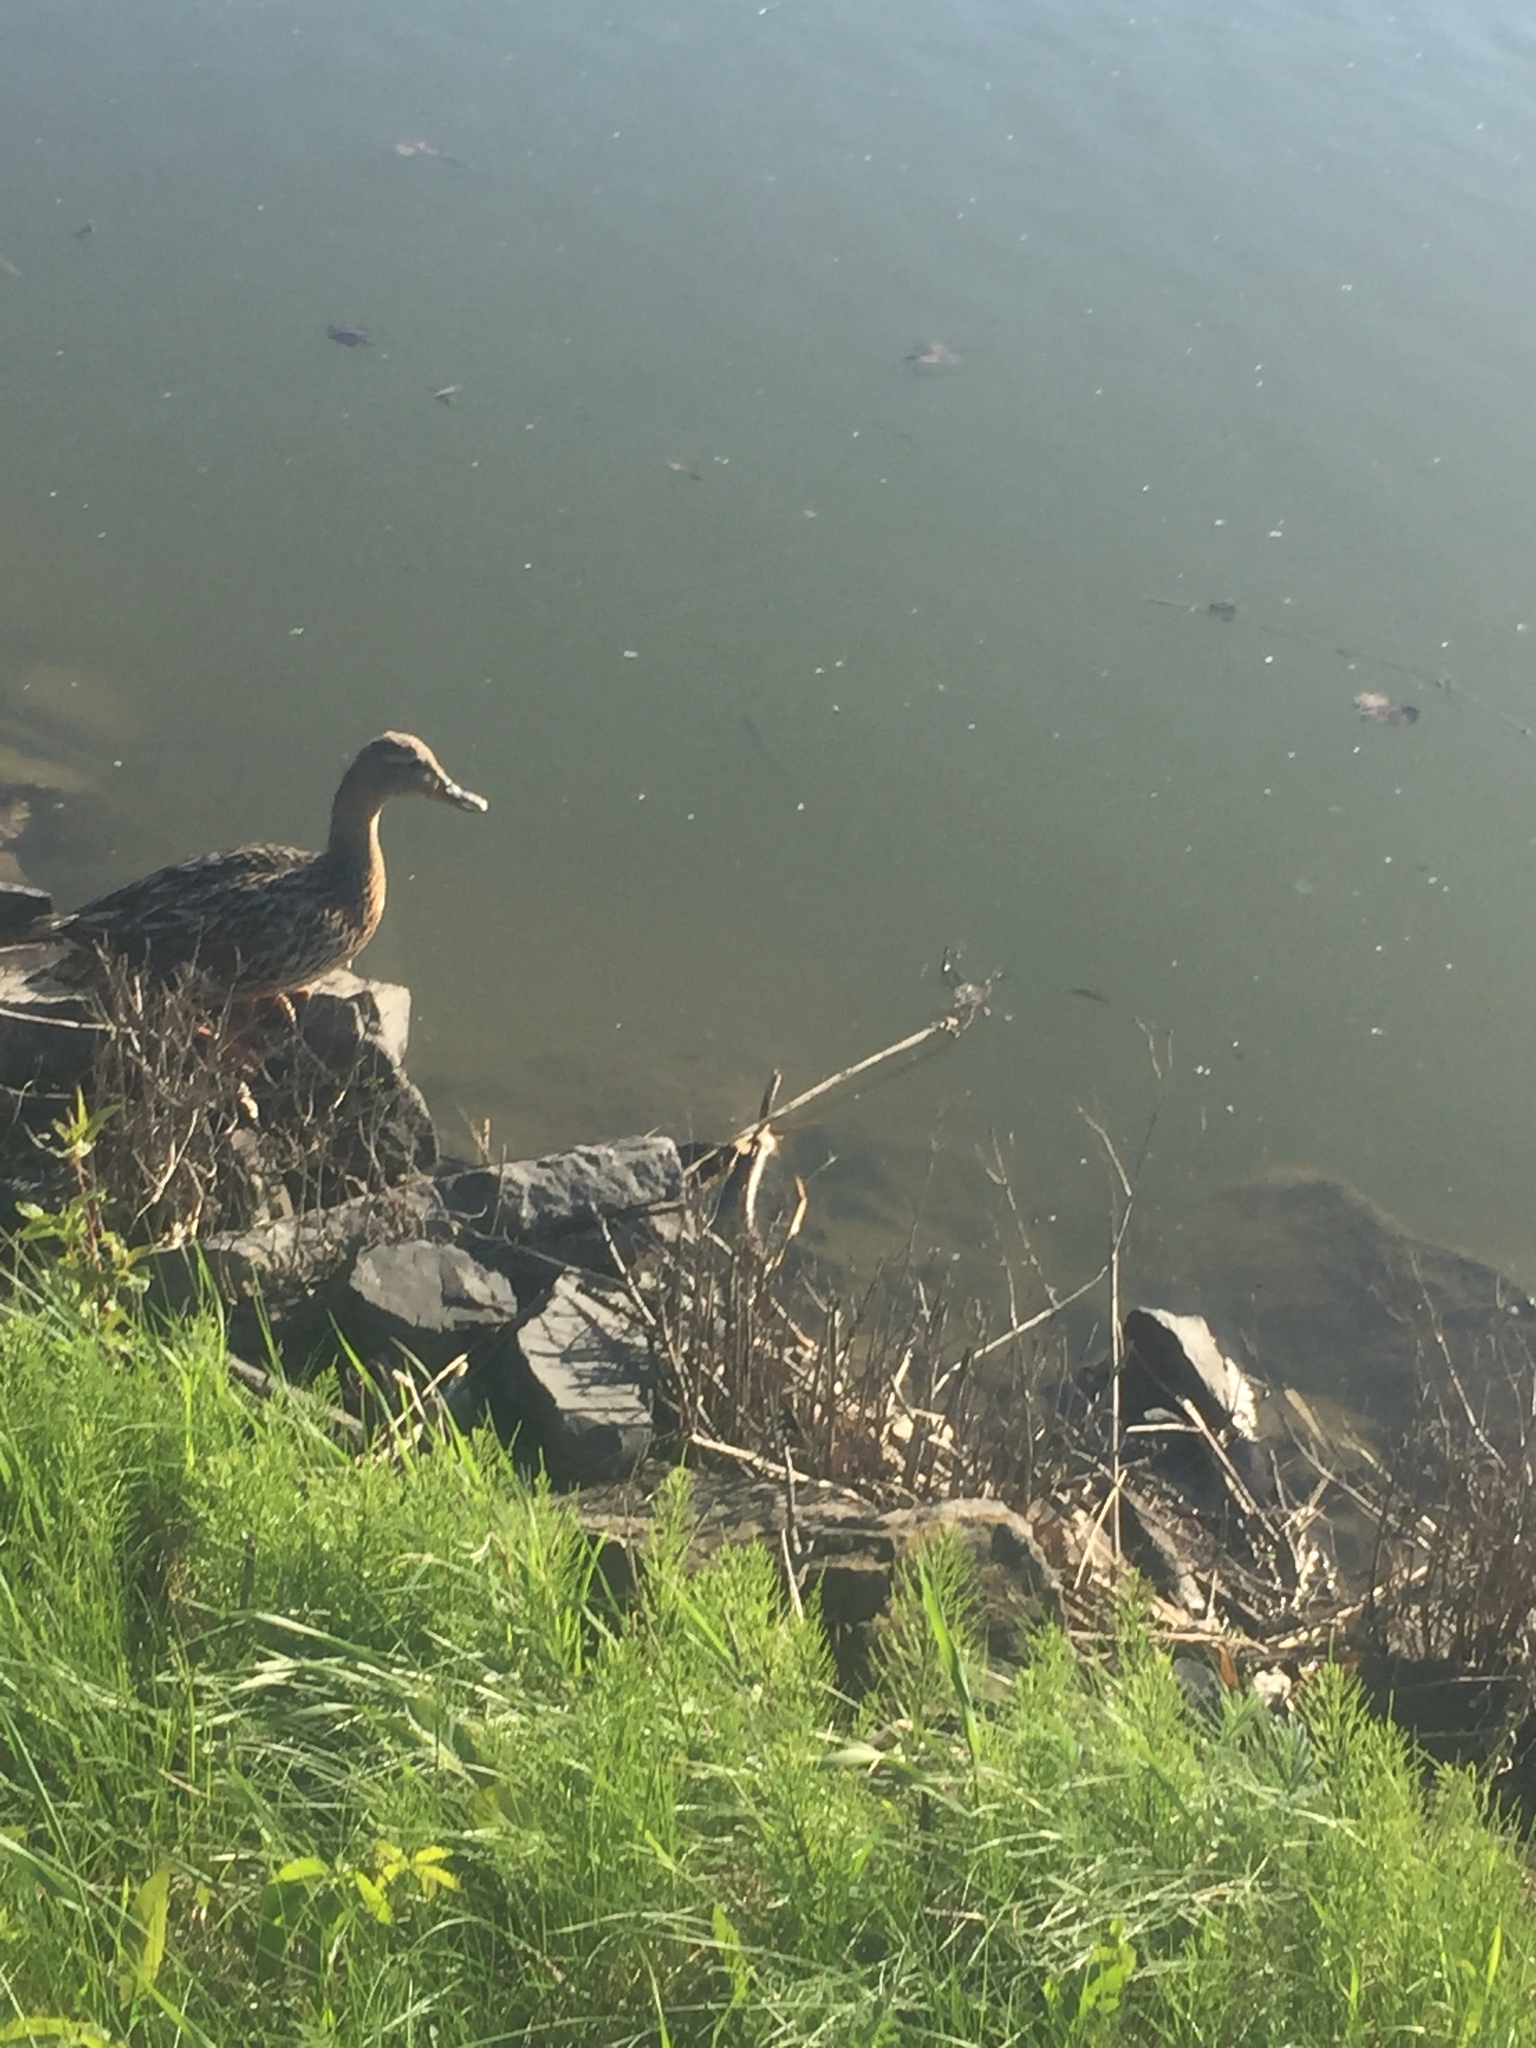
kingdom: Animalia
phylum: Chordata
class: Aves
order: Anseriformes
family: Anatidae
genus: Anas
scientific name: Anas platyrhynchos
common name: Mallard
